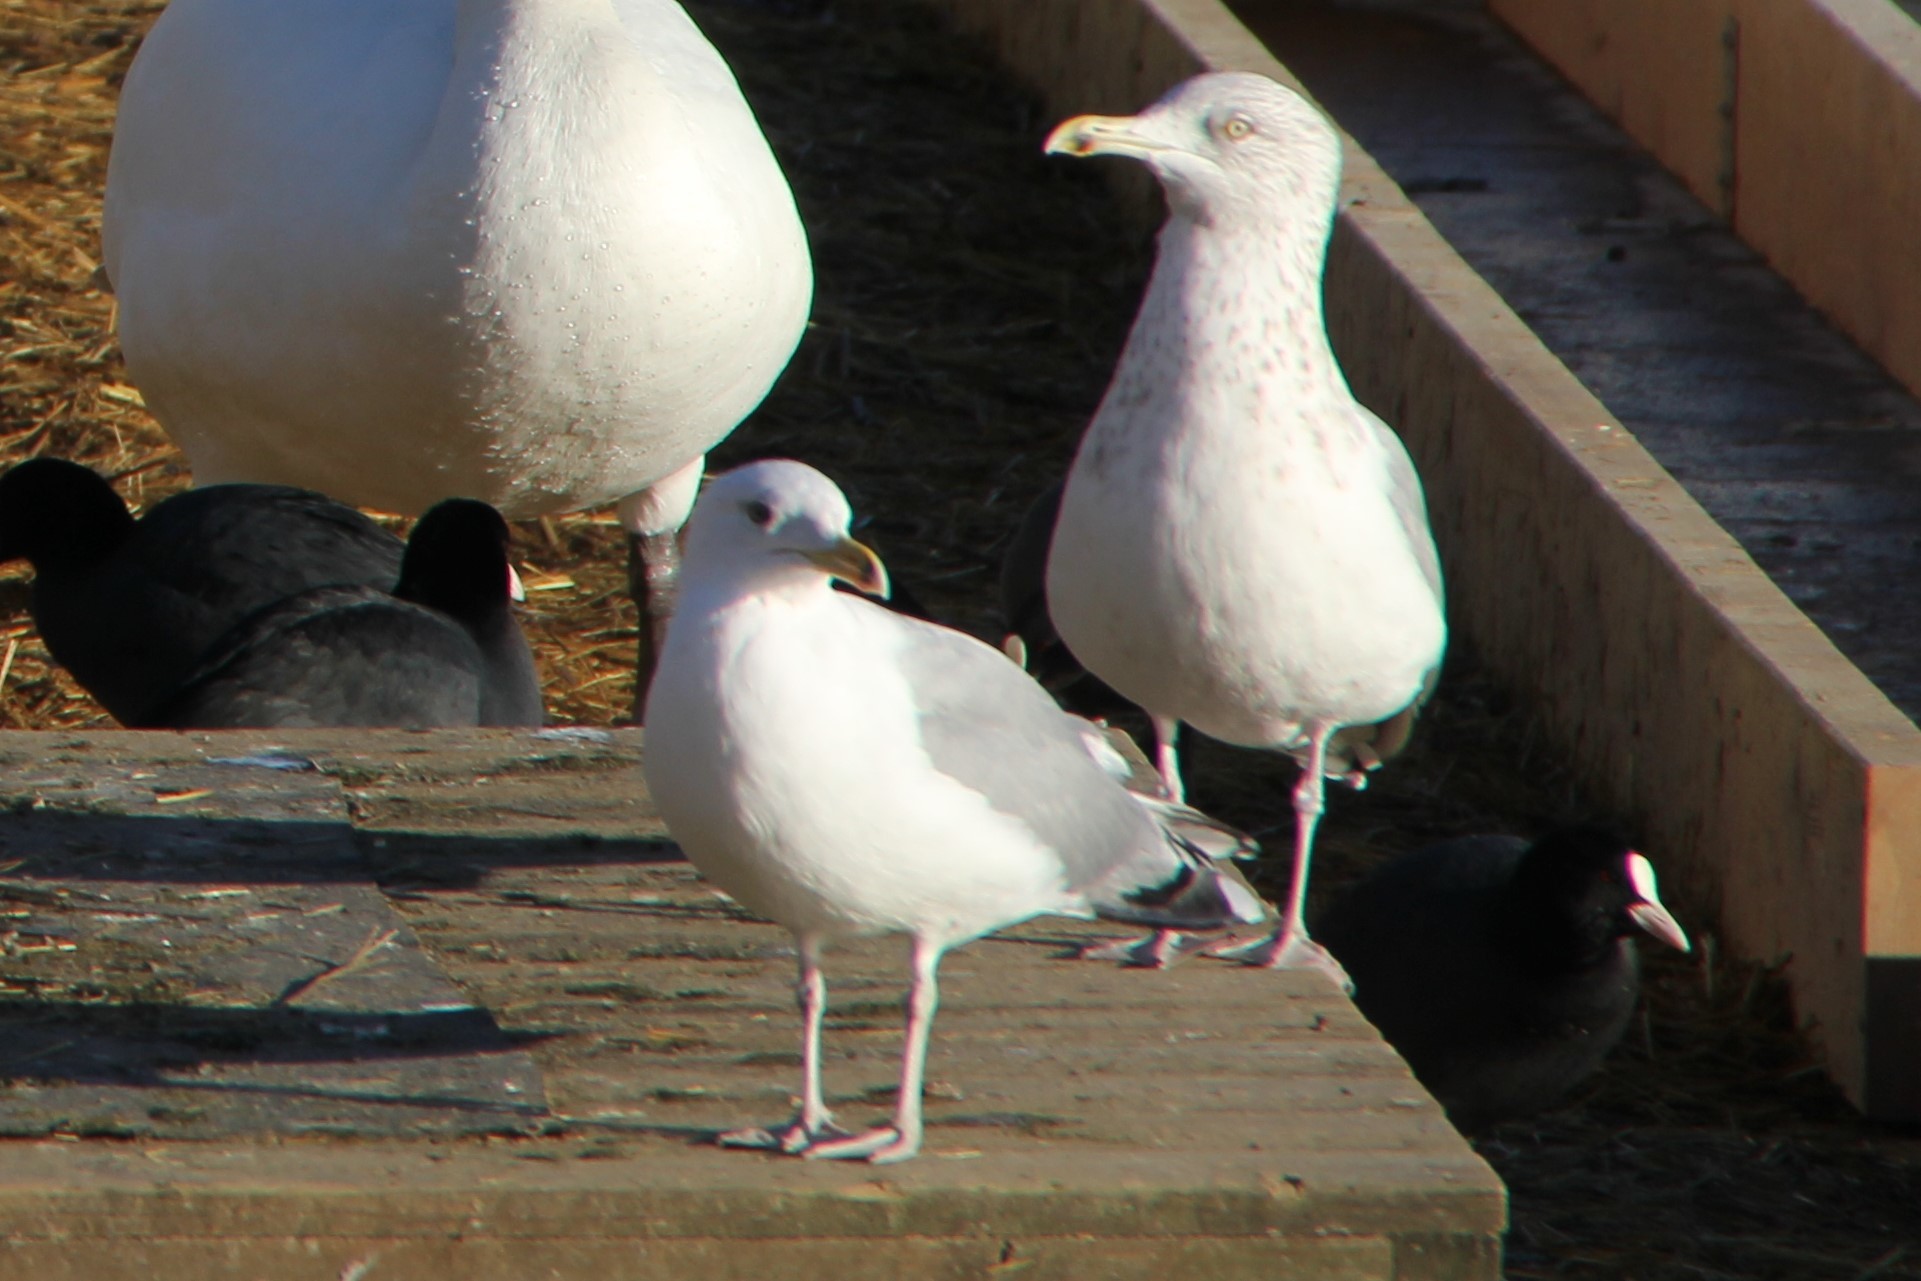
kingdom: Animalia
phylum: Chordata
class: Aves
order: Charadriiformes
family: Laridae
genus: Larus
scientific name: Larus argentatus
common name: Herring gull
